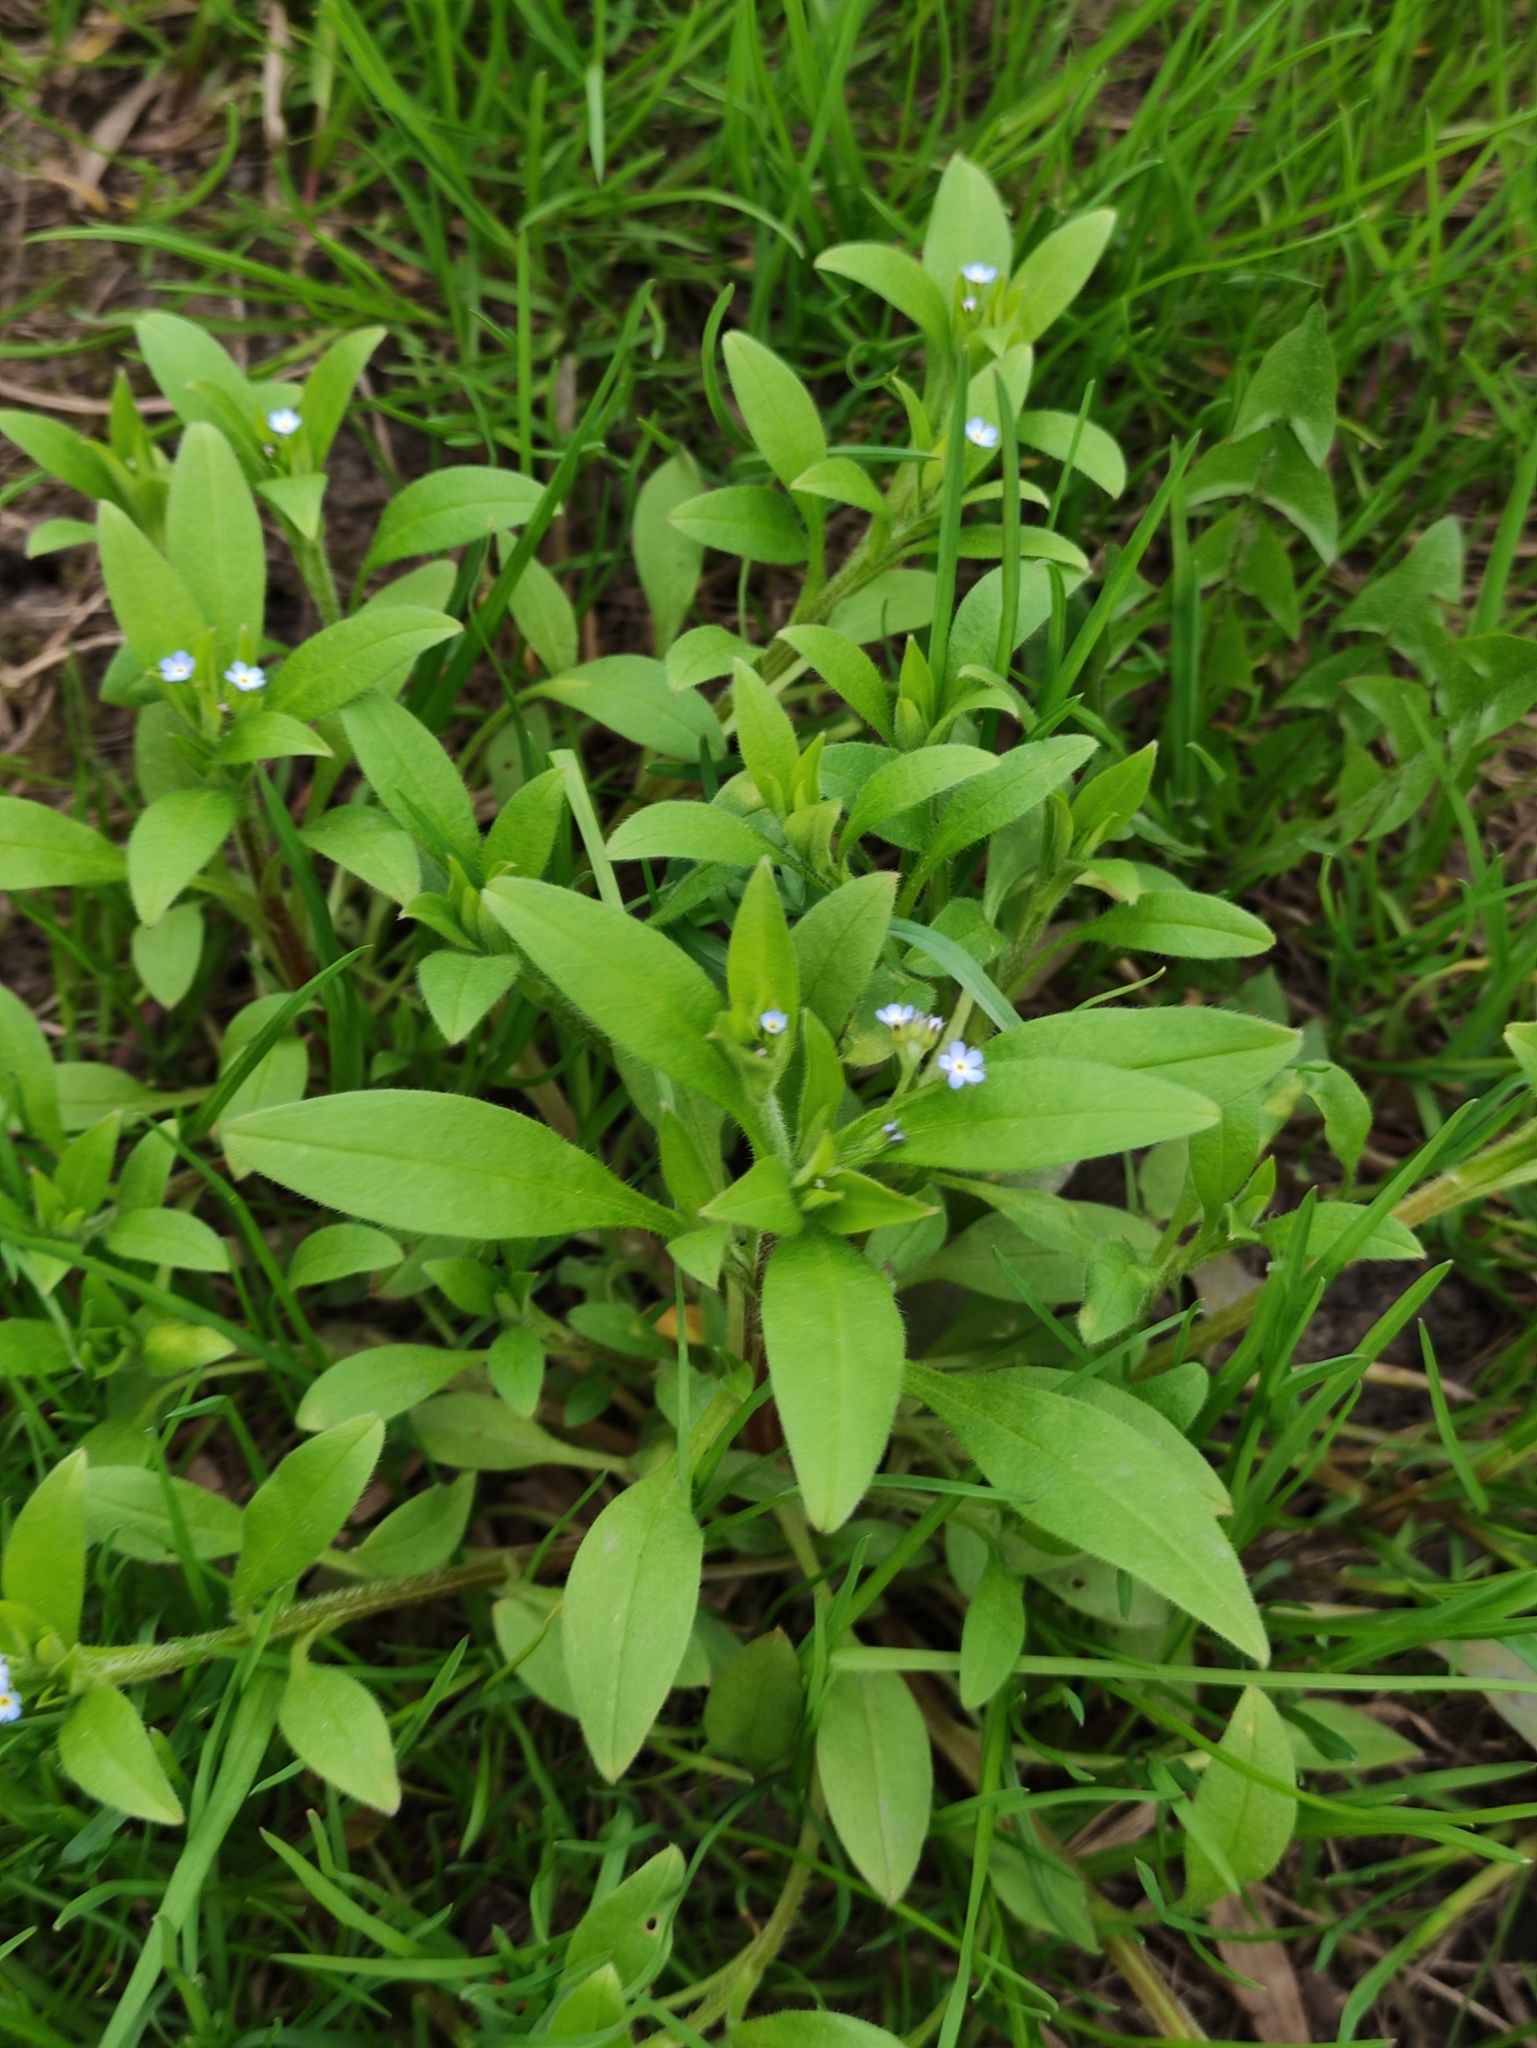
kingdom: Plantae
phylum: Tracheophyta
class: Magnoliopsida
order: Boraginales
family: Boraginaceae
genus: Myosotis
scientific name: Myosotis sparsiflora
